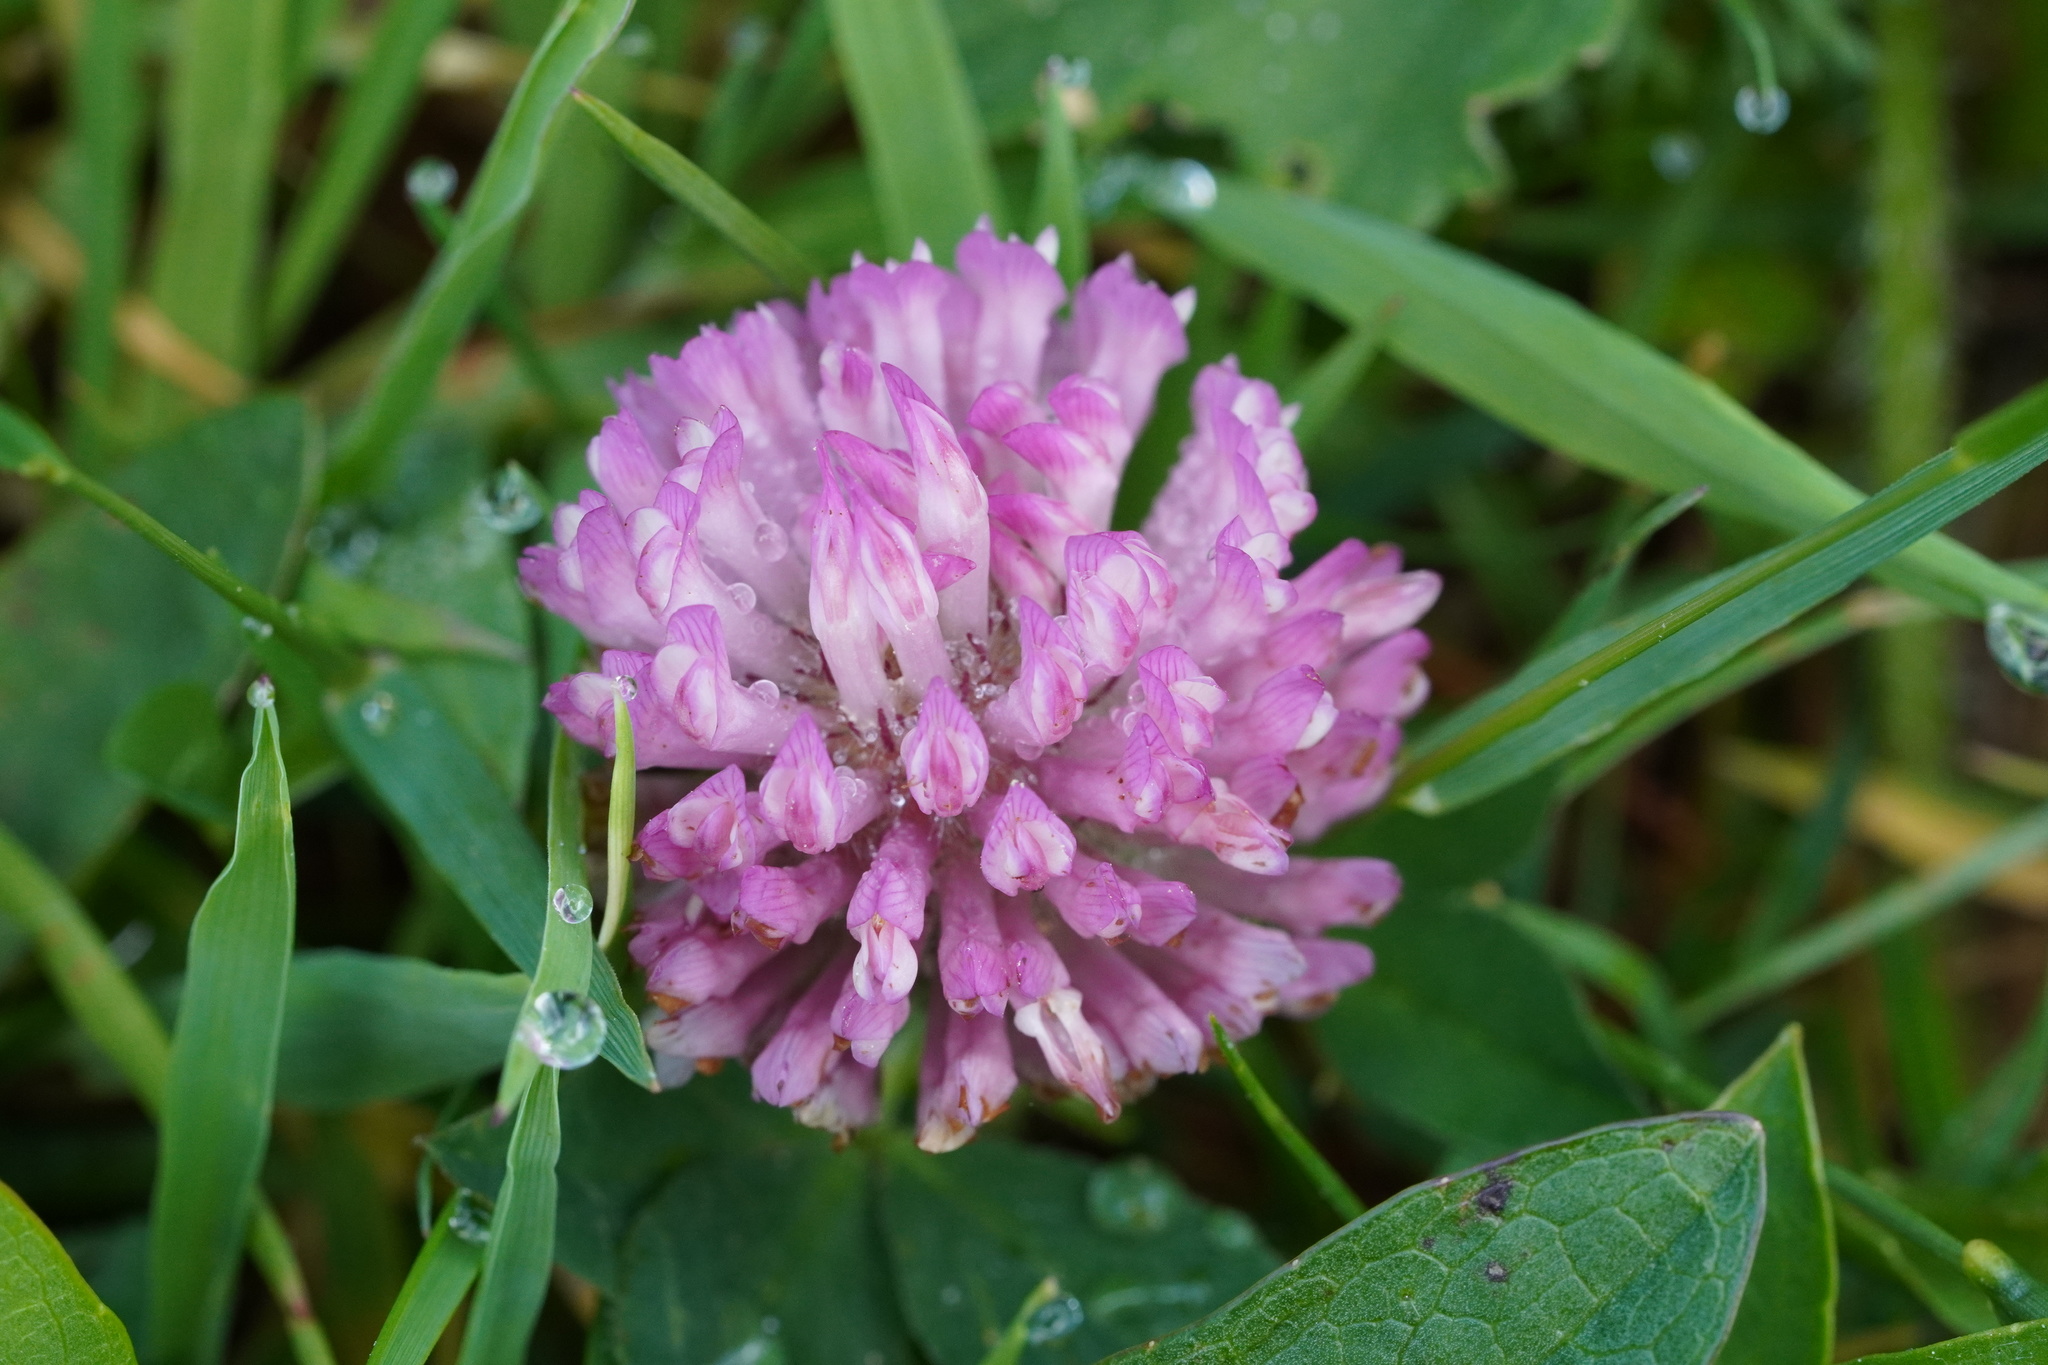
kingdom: Plantae
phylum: Tracheophyta
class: Magnoliopsida
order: Fabales
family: Fabaceae
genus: Trifolium
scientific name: Trifolium pratense
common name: Red clover
